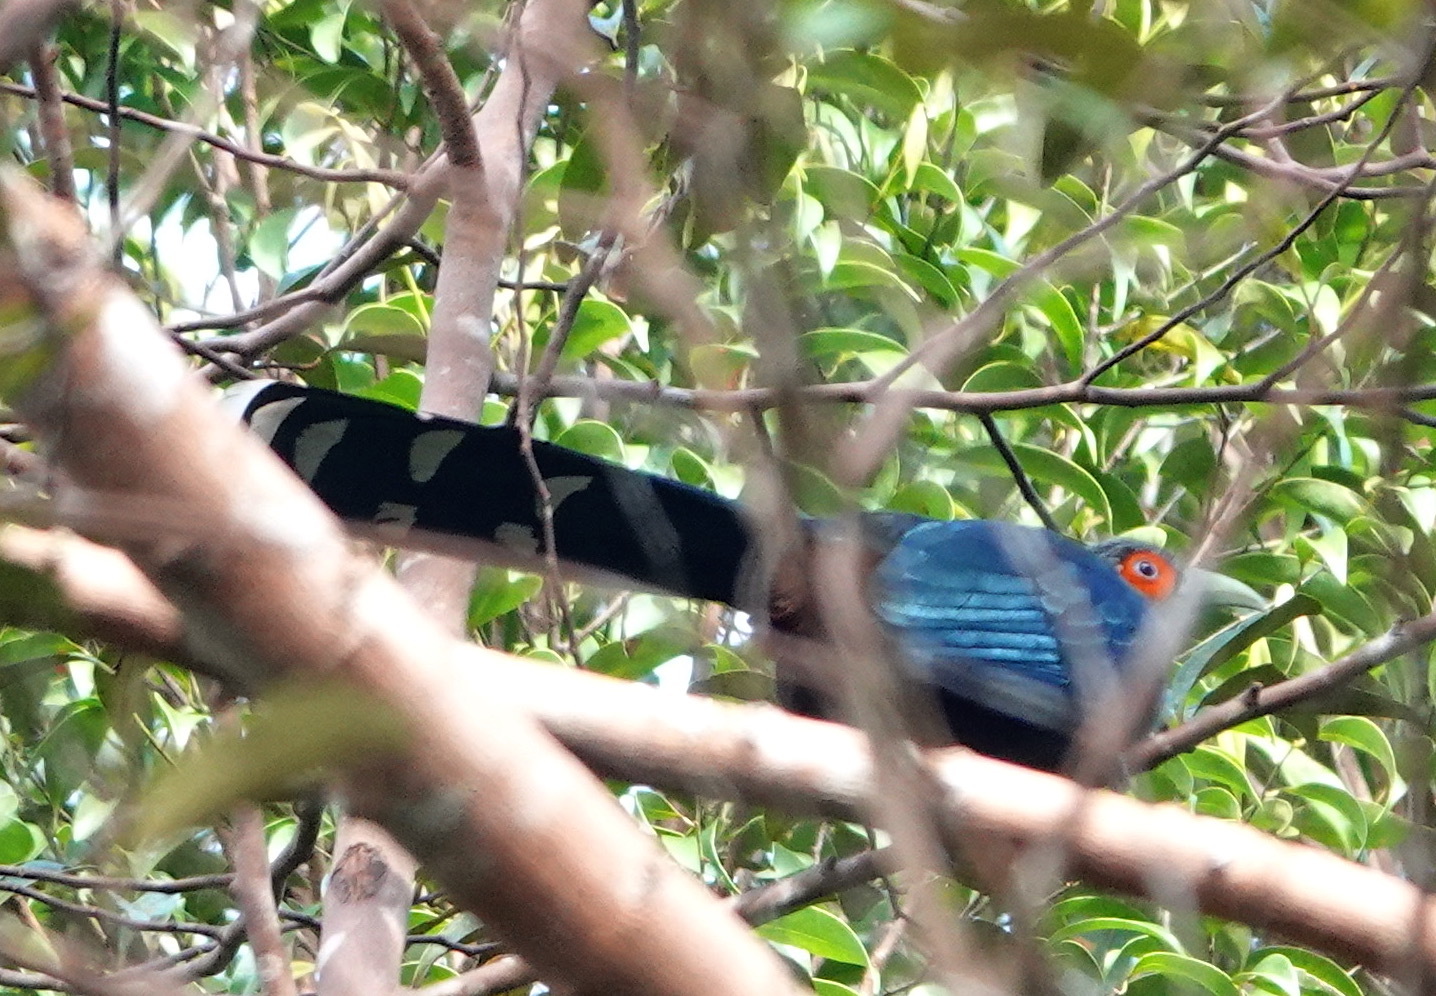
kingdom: Animalia
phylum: Chordata
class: Aves
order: Cuculiformes
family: Cuculidae
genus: Rhopodytes
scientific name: Rhopodytes sumatranus
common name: Rufous-bellied malcoha
